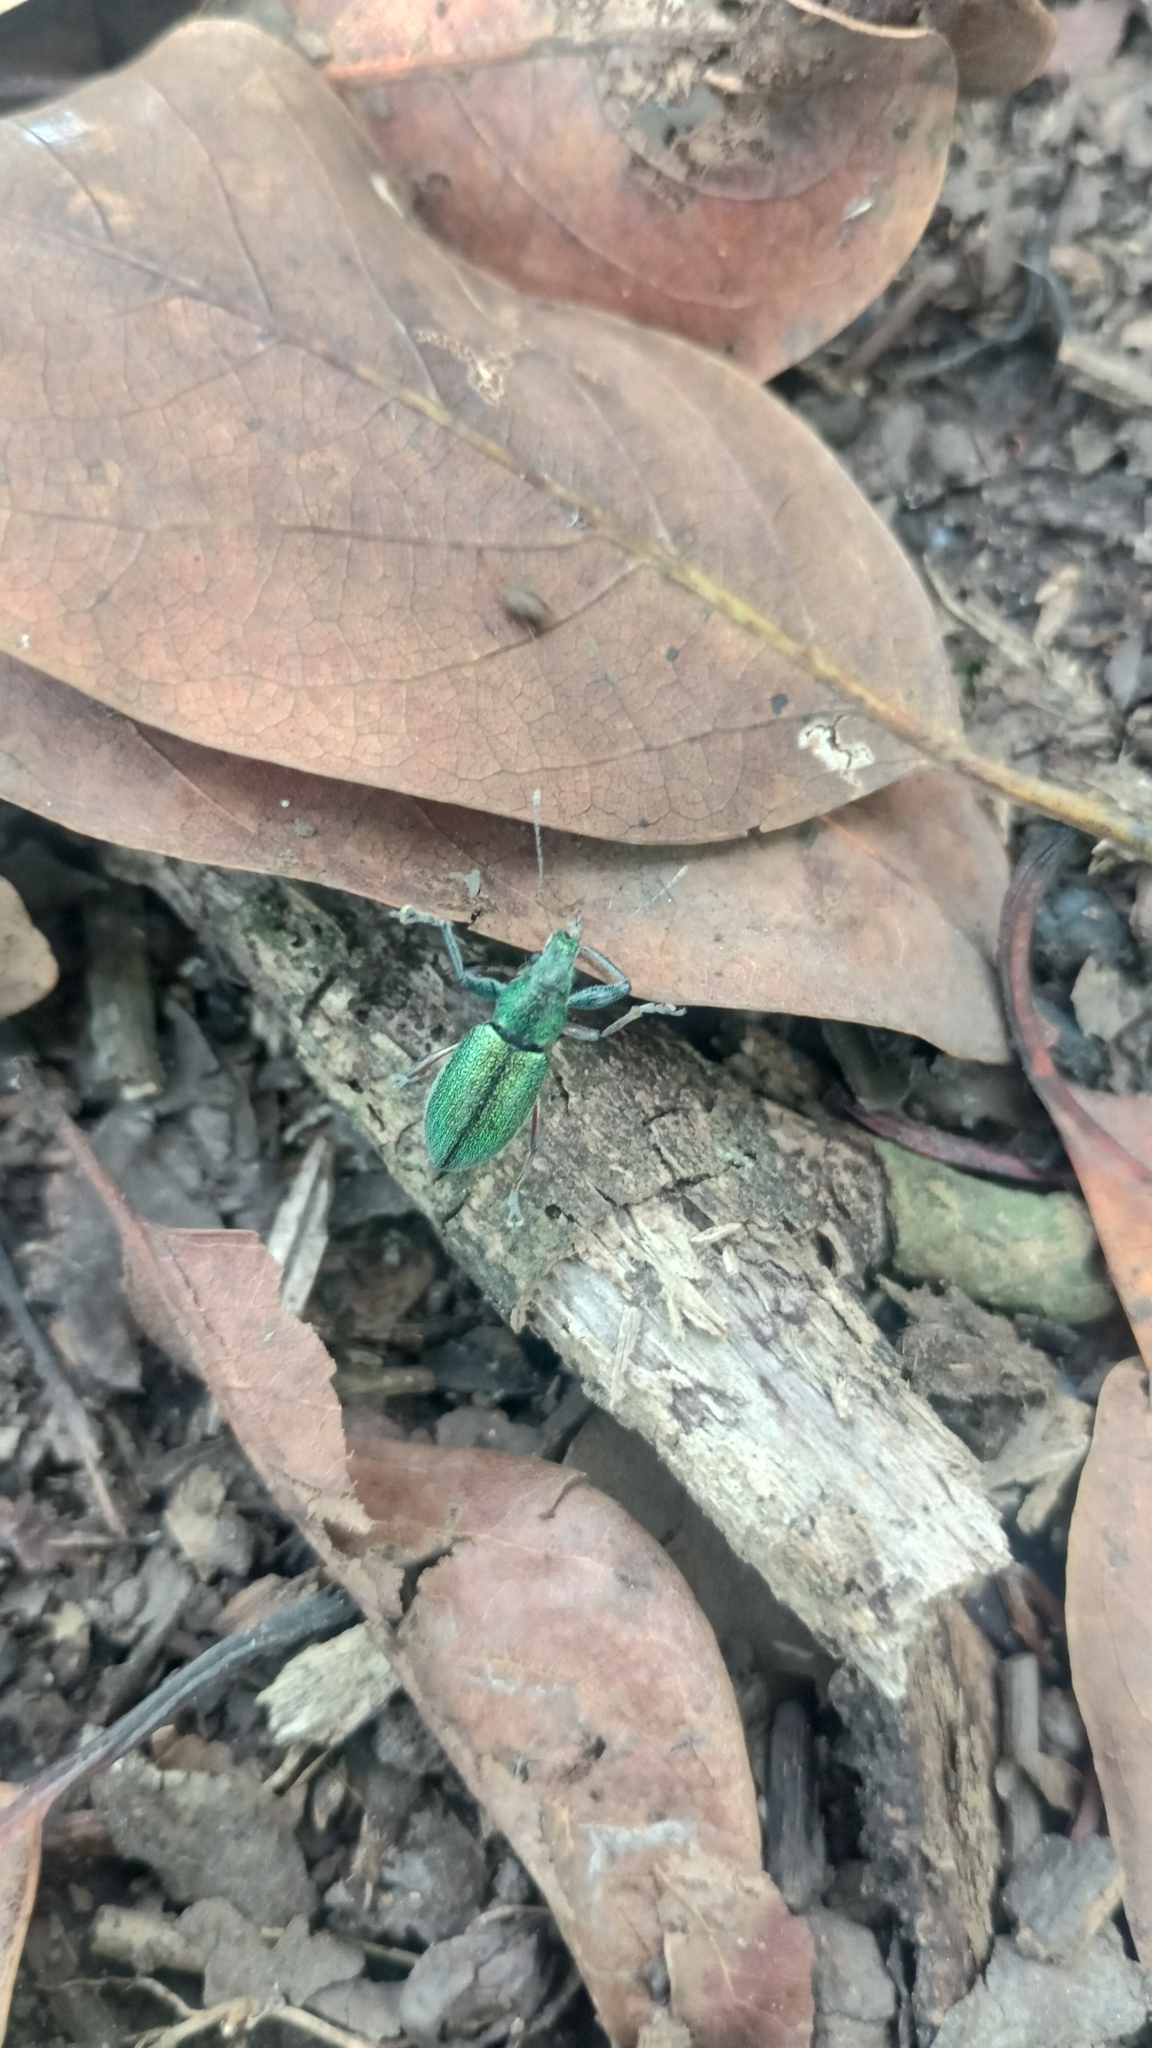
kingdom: Animalia
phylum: Arthropoda
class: Insecta
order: Coleoptera
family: Curculionidae
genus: Naupactus
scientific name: Naupactus auricinctus
